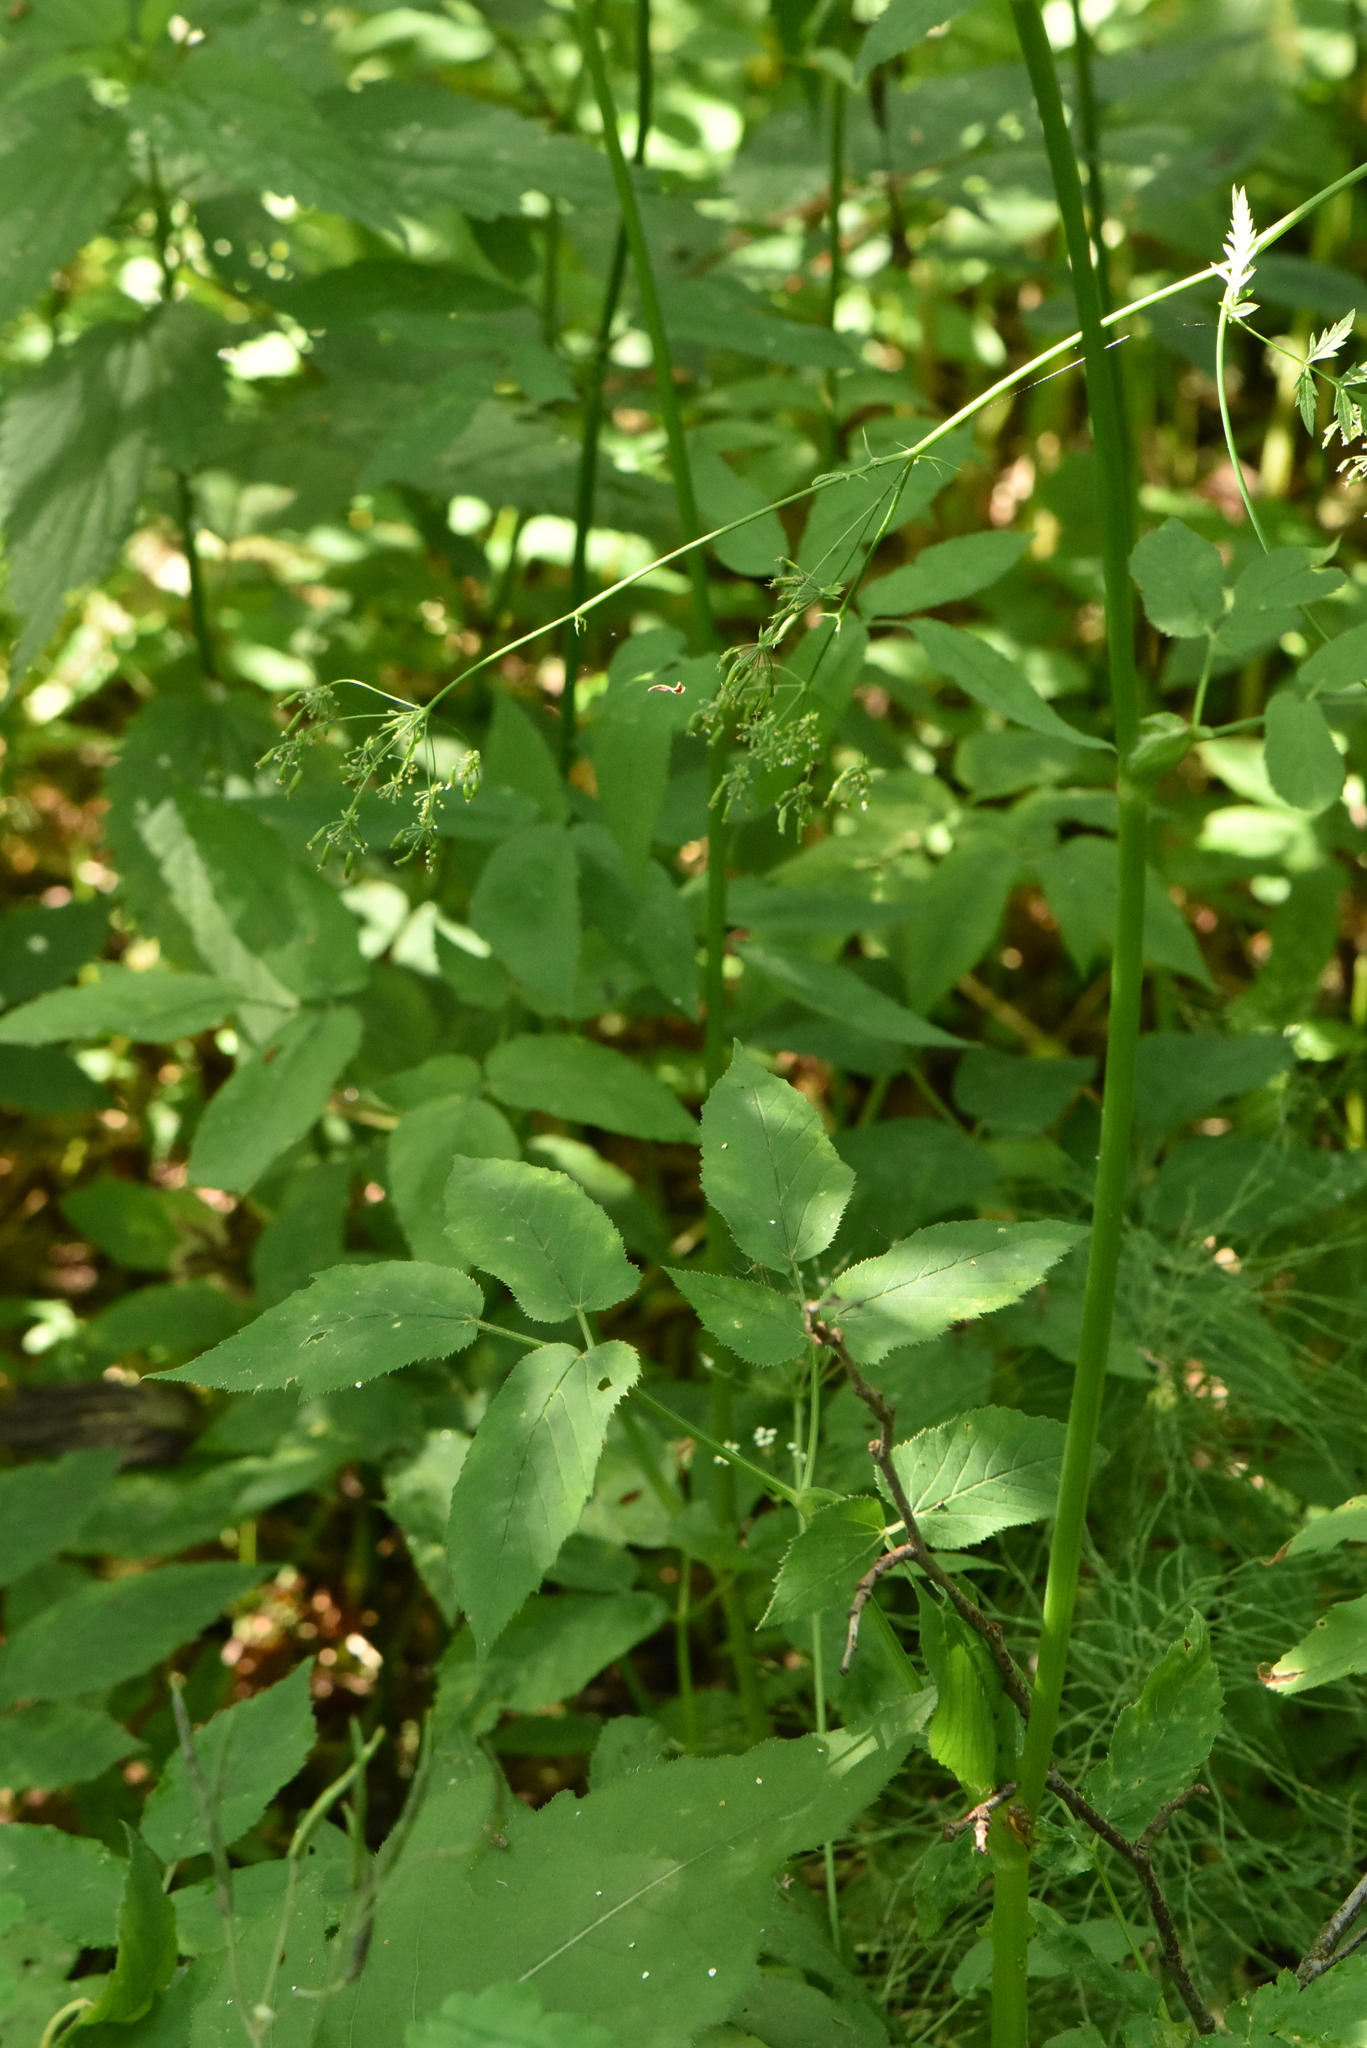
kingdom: Plantae
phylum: Tracheophyta
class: Magnoliopsida
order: Apiales
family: Apiaceae
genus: Aegopodium
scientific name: Aegopodium podagraria
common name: Ground-elder
